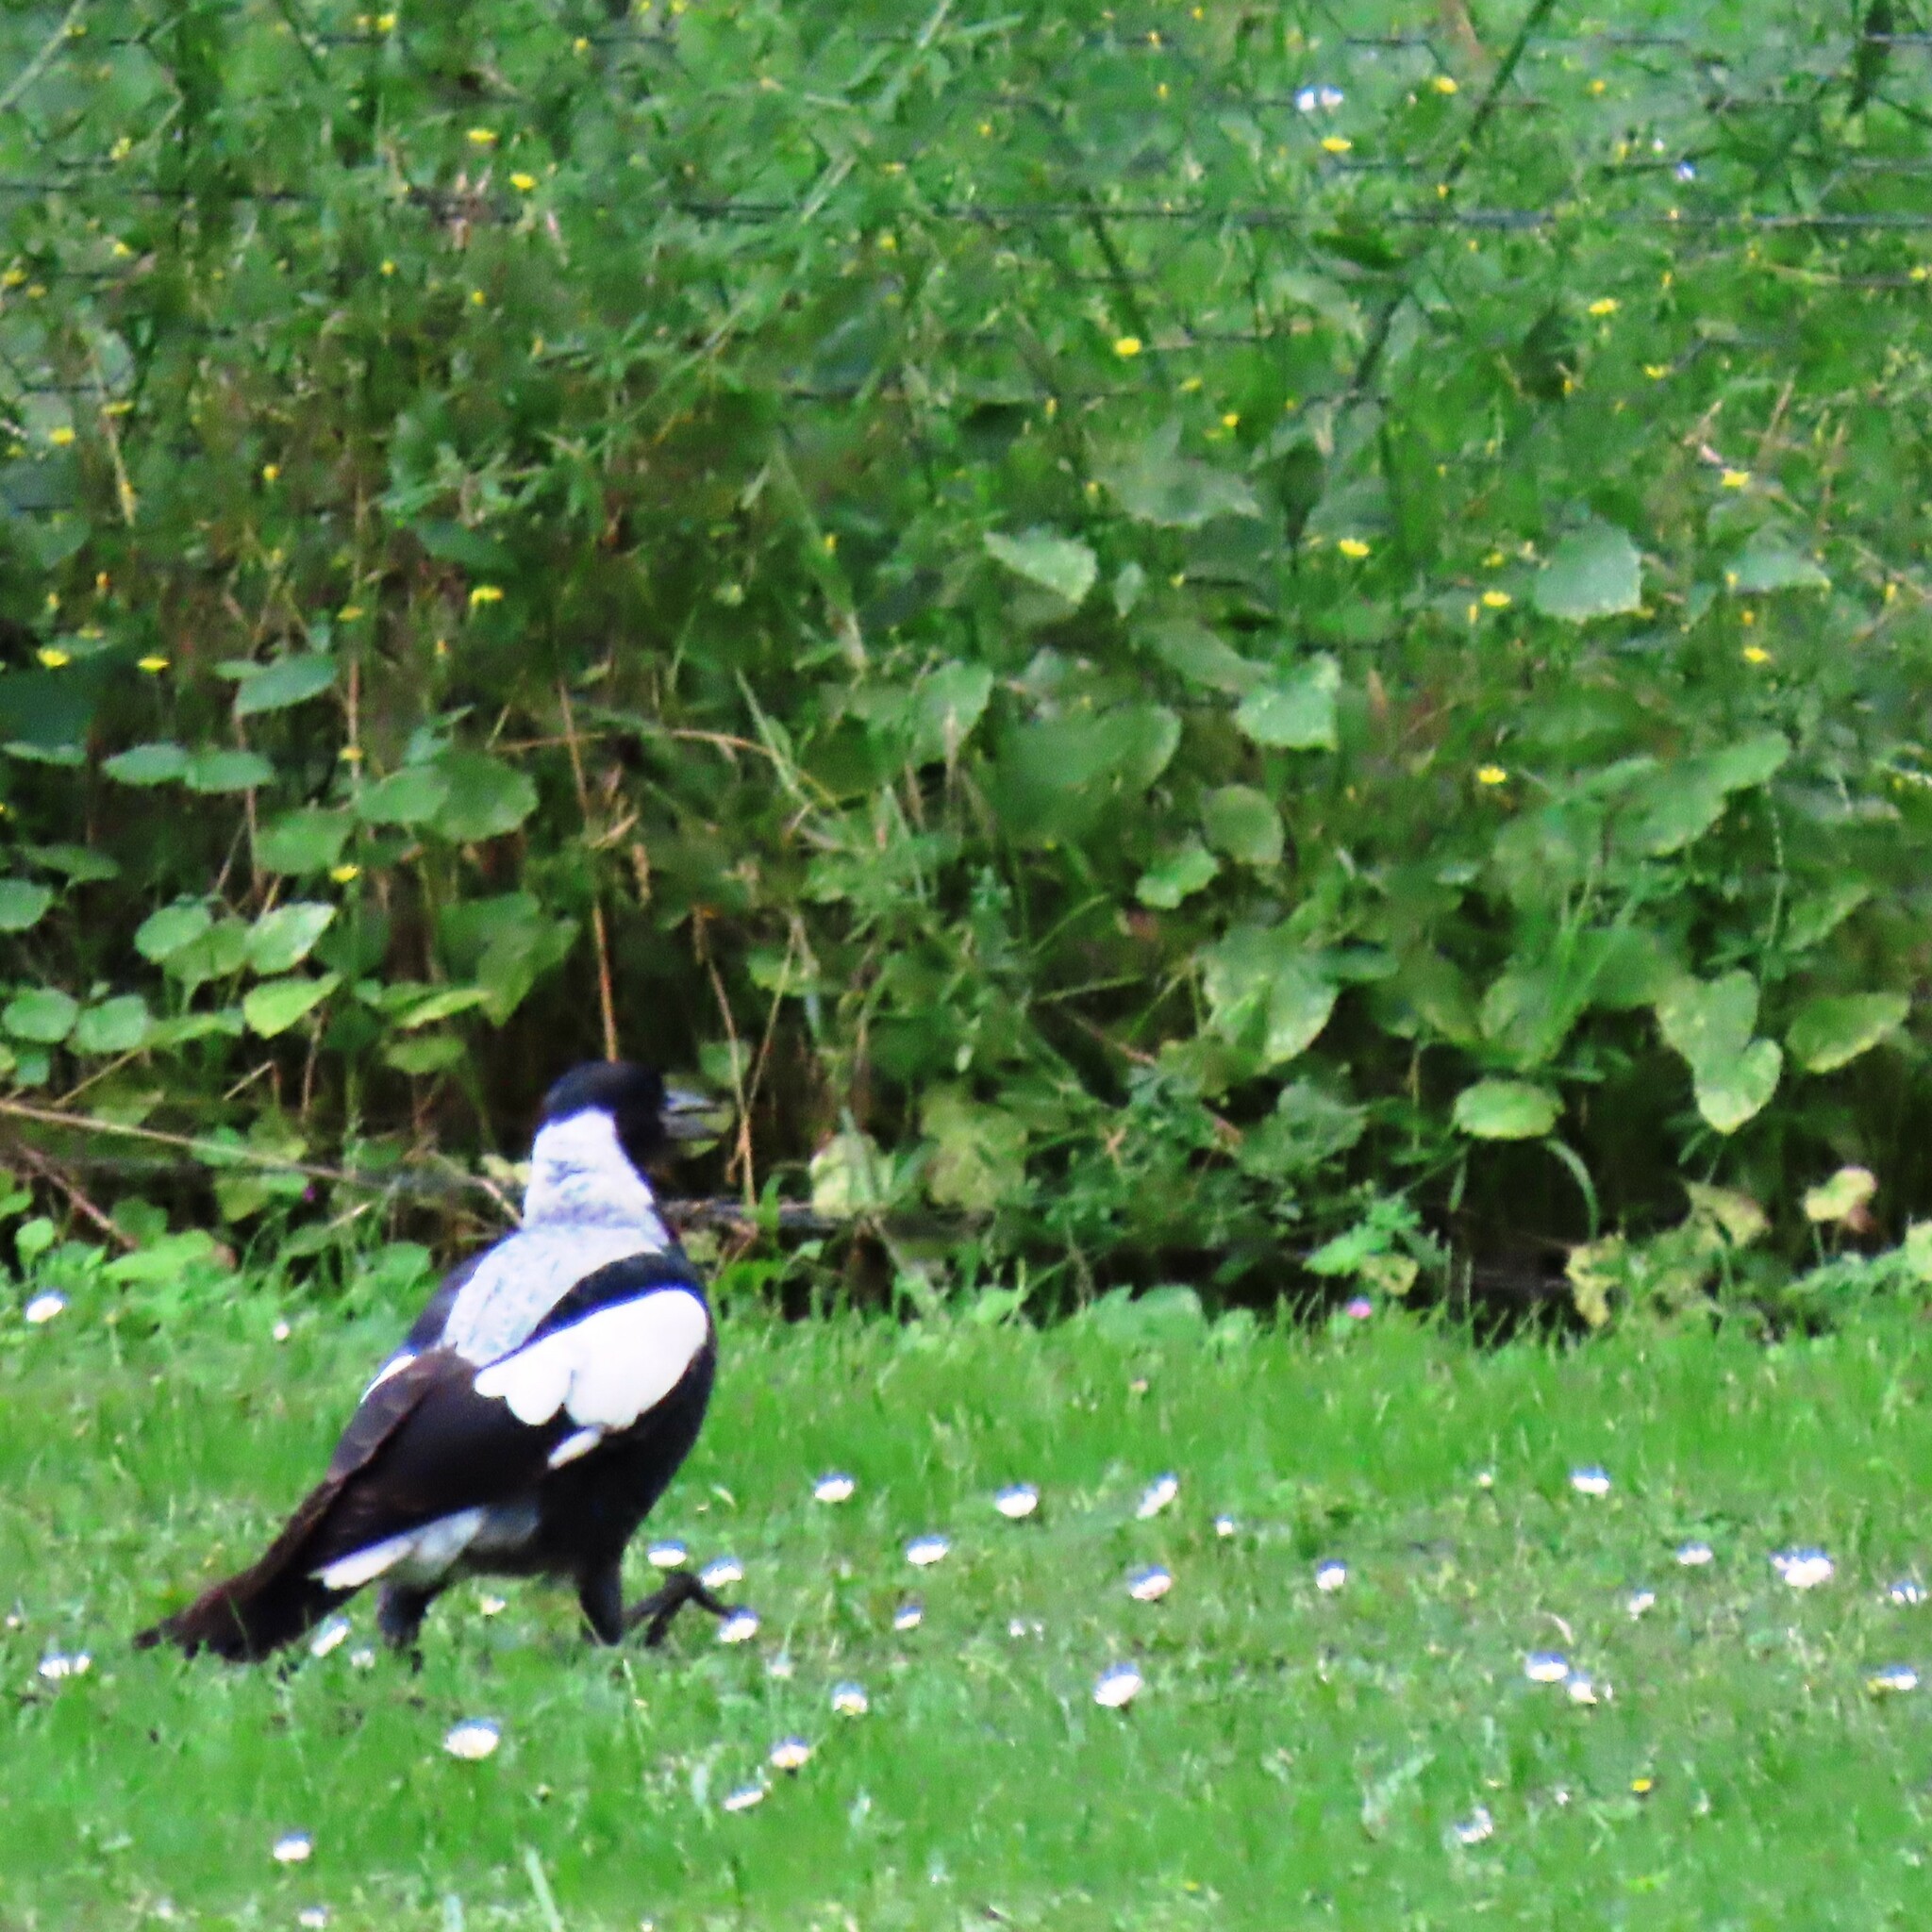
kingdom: Animalia
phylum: Chordata
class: Aves
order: Passeriformes
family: Cracticidae
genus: Gymnorhina
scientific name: Gymnorhina tibicen
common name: Australian magpie
